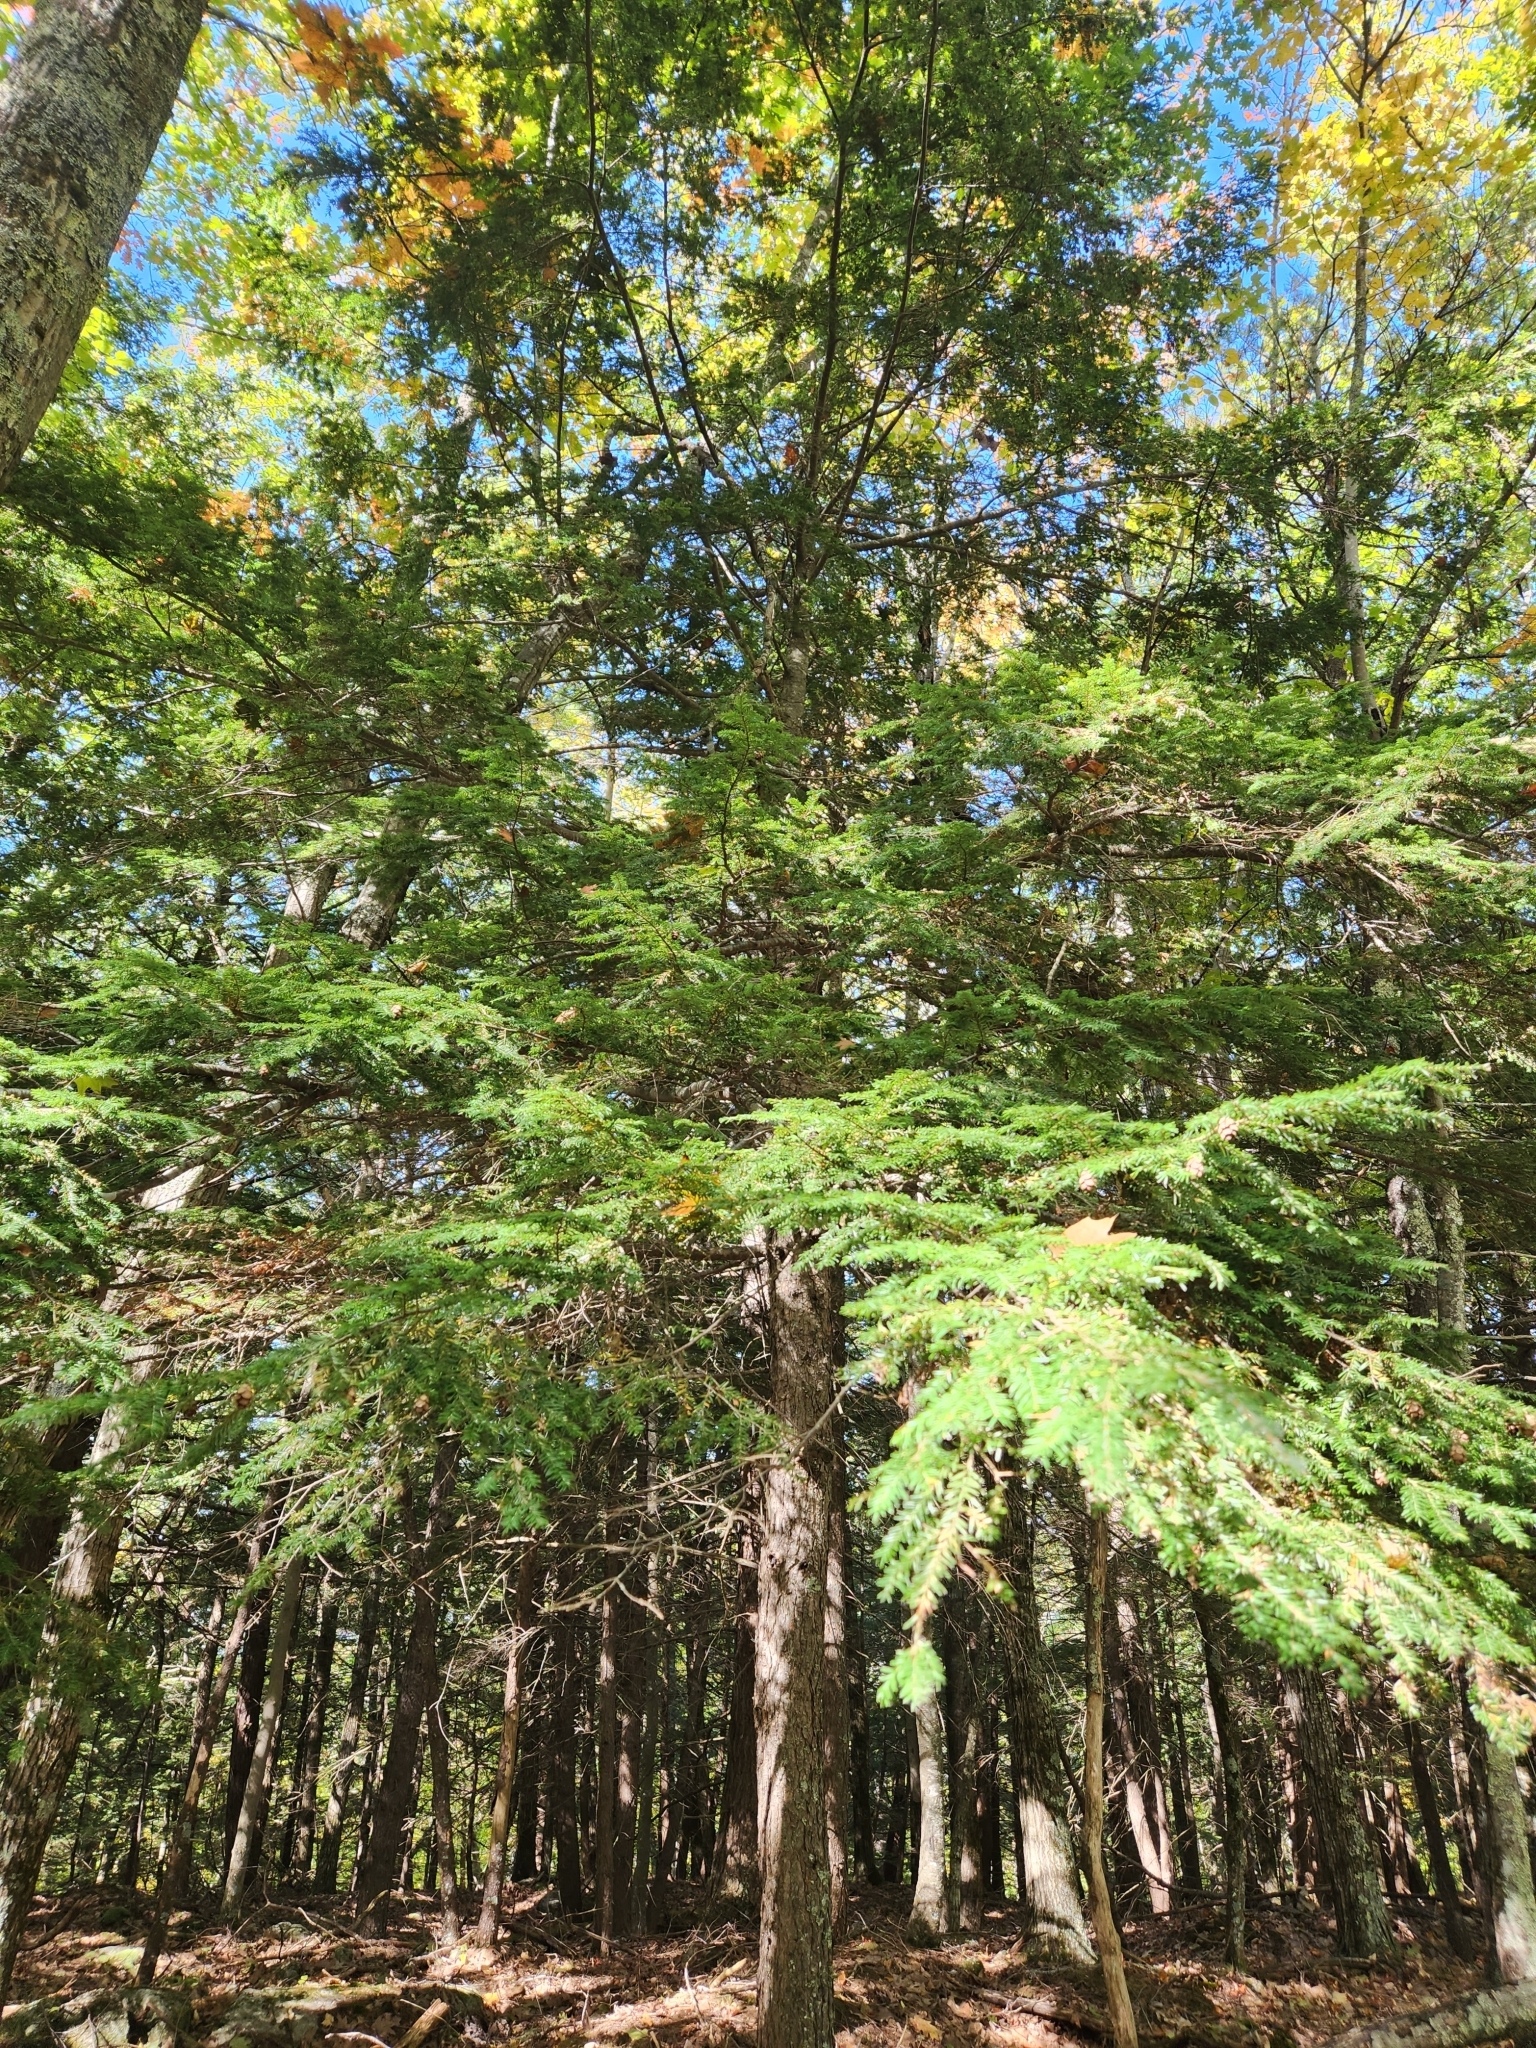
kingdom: Plantae
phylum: Tracheophyta
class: Pinopsida
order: Pinales
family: Pinaceae
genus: Tsuga
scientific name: Tsuga canadensis
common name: Eastern hemlock
